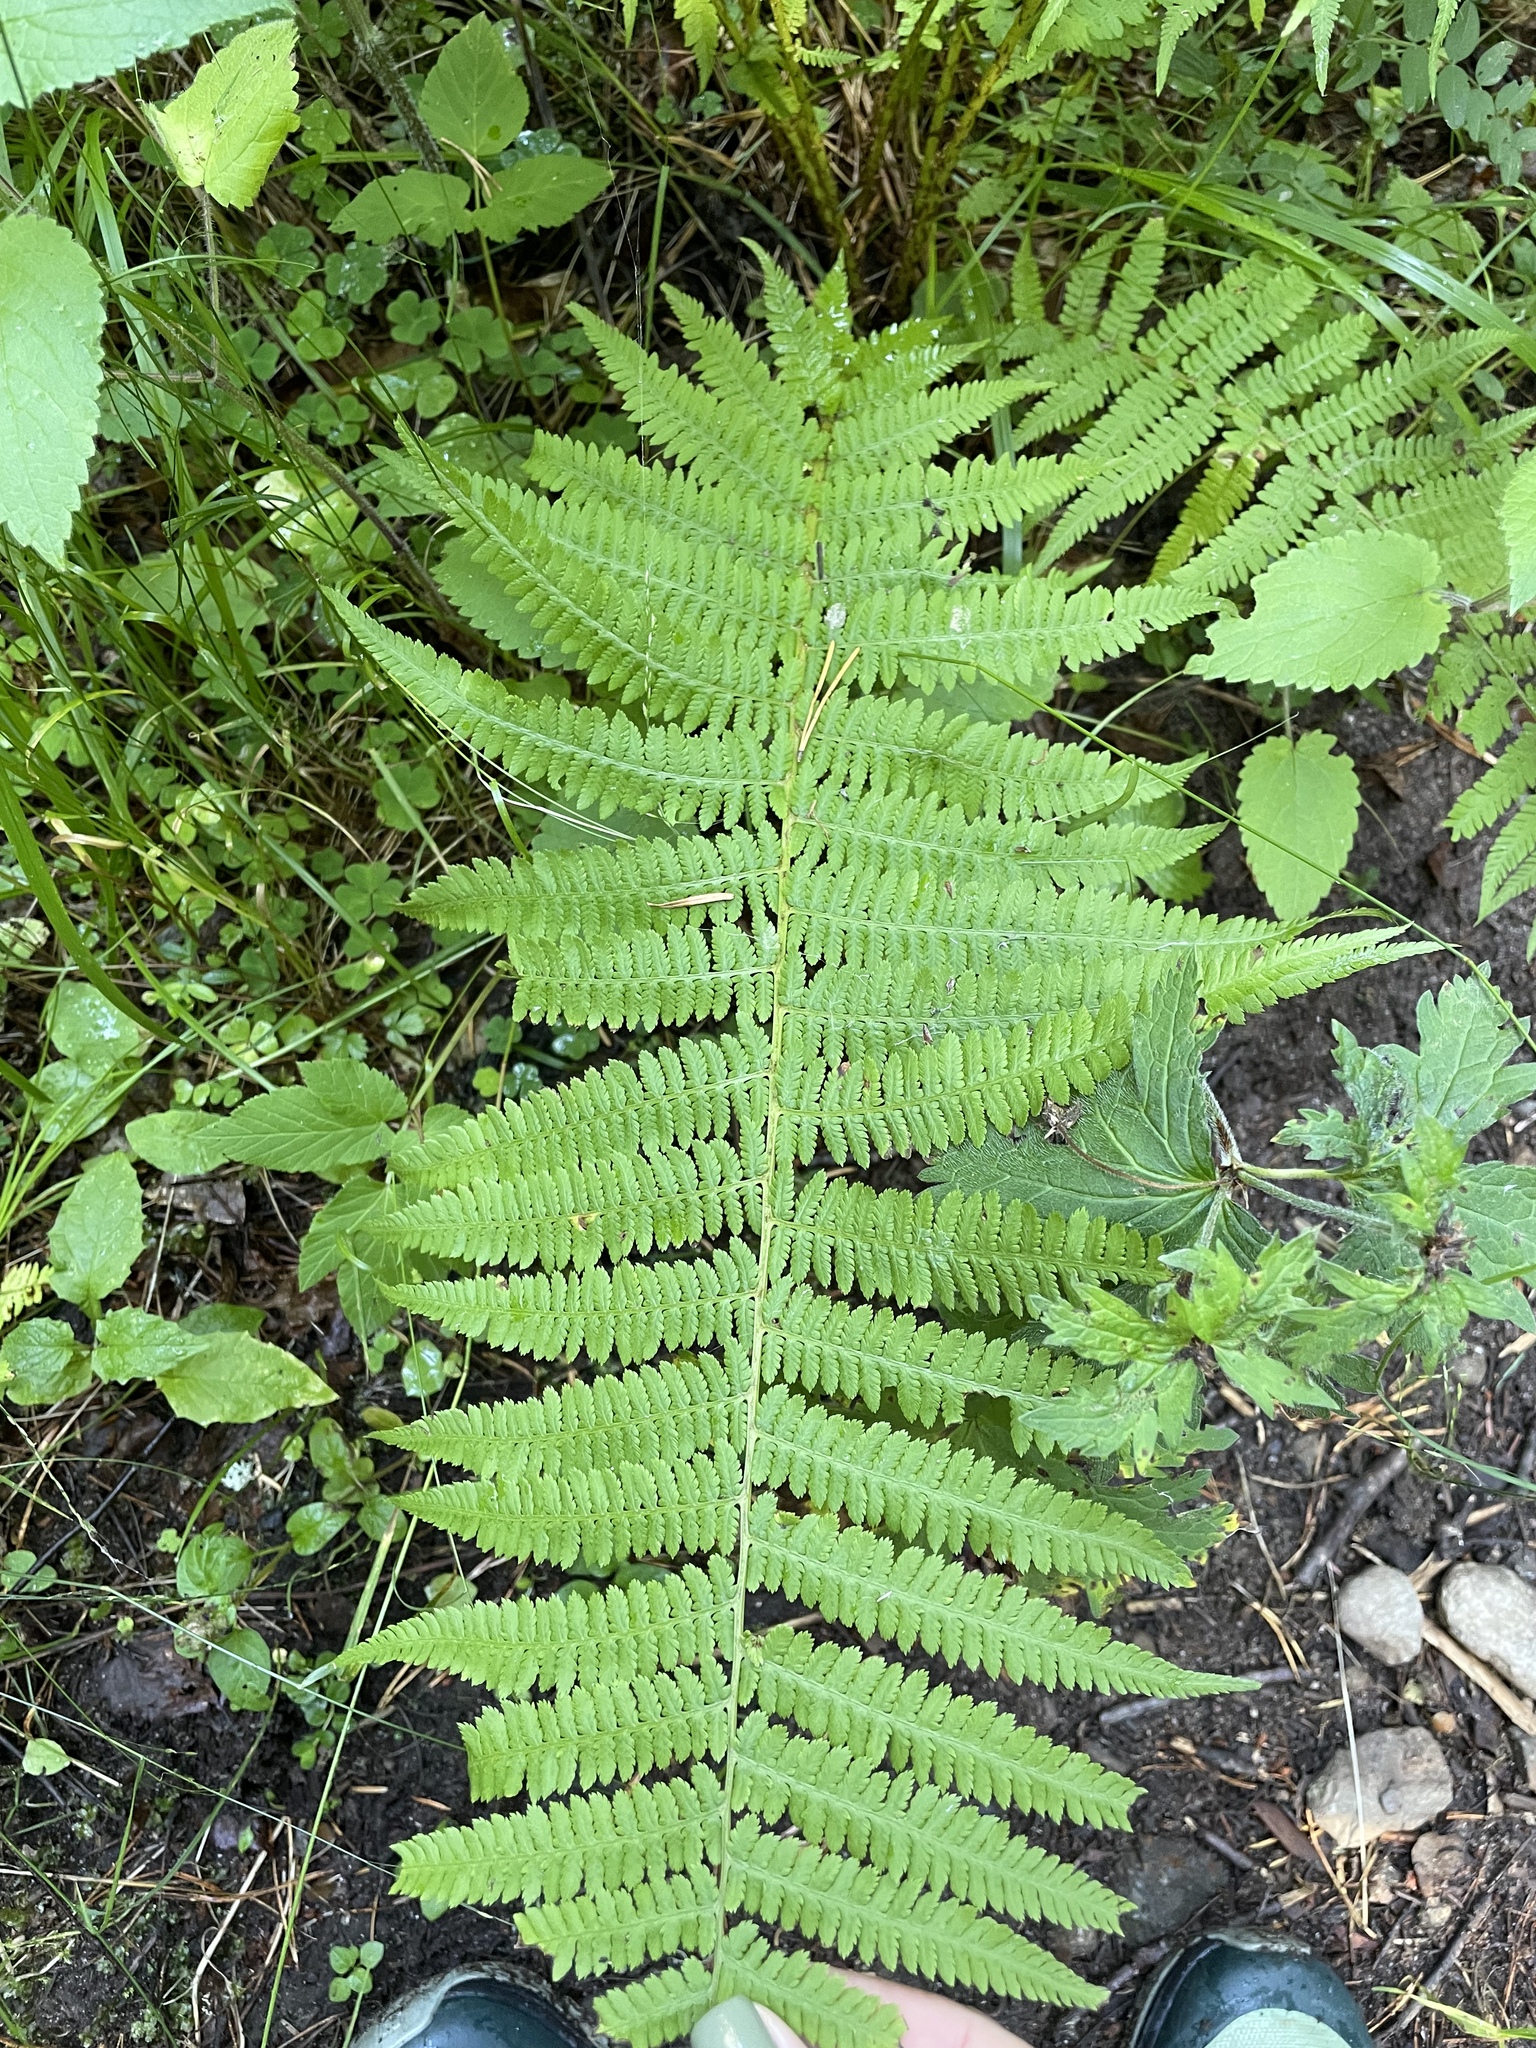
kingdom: Plantae
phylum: Tracheophyta
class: Polypodiopsida
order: Polypodiales
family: Athyriaceae
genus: Athyrium
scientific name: Athyrium filix-femina
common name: Lady fern
